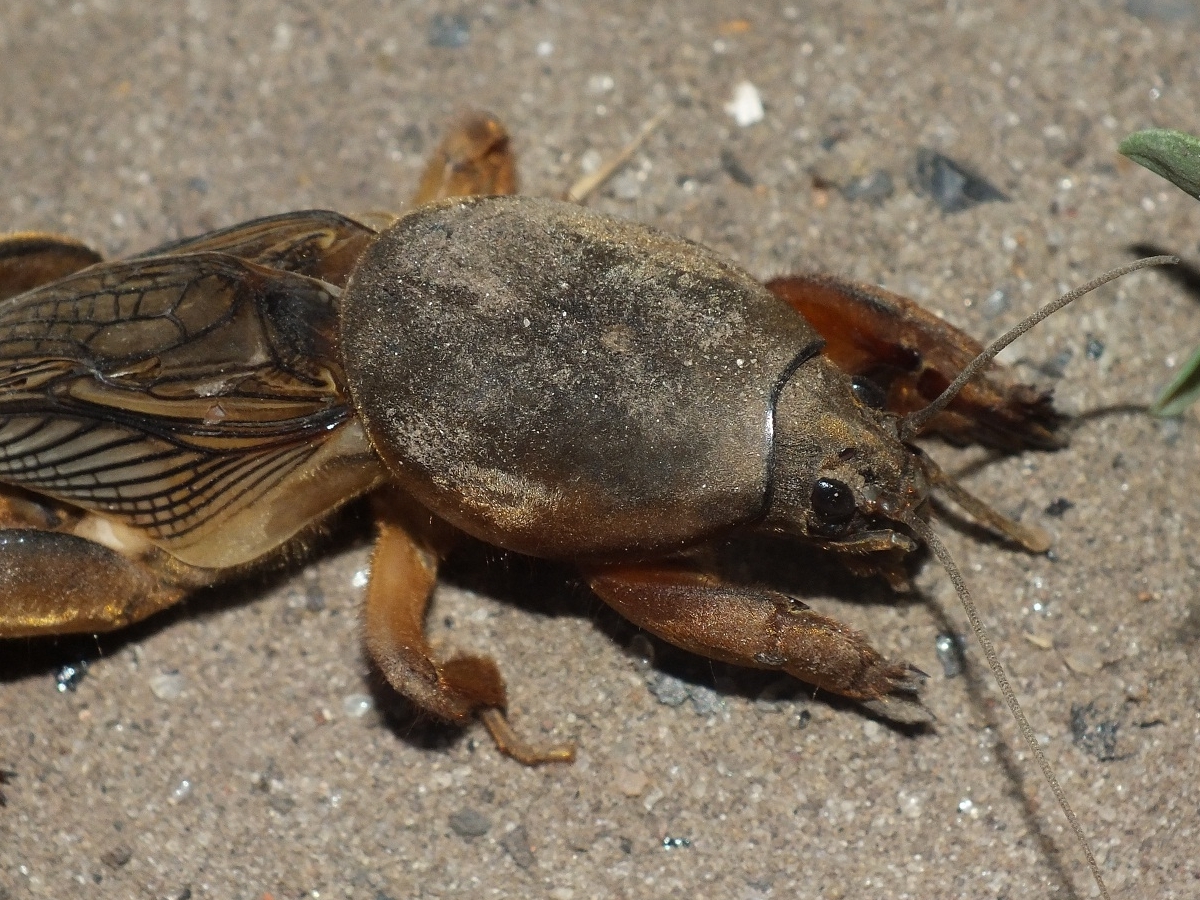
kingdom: Animalia
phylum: Arthropoda
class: Insecta
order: Orthoptera
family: Gryllotalpidae
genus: Gryllotalpa
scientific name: Gryllotalpa gryllotalpa
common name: European mole cricket
